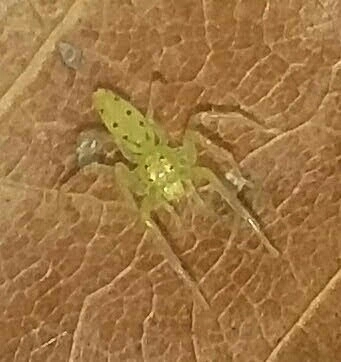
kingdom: Animalia
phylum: Arthropoda
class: Arachnida
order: Araneae
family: Salticidae
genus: Lyssomanes
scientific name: Lyssomanes viridis
